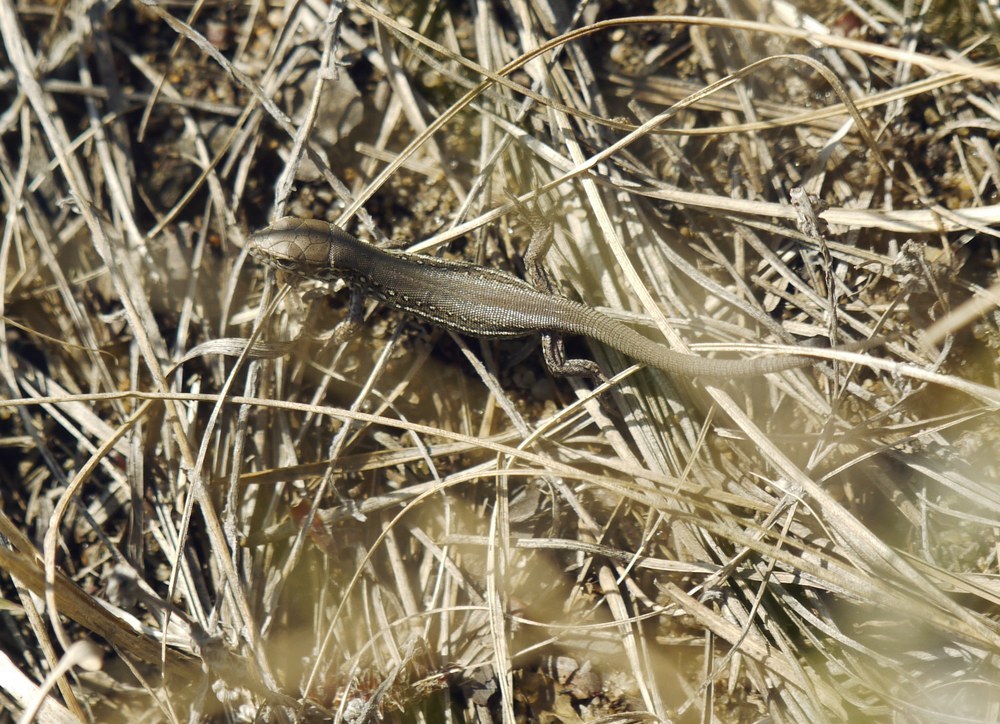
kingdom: Animalia
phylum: Chordata
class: Squamata
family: Lacertidae
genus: Lacerta
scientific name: Lacerta agilis
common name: Sand lizard
